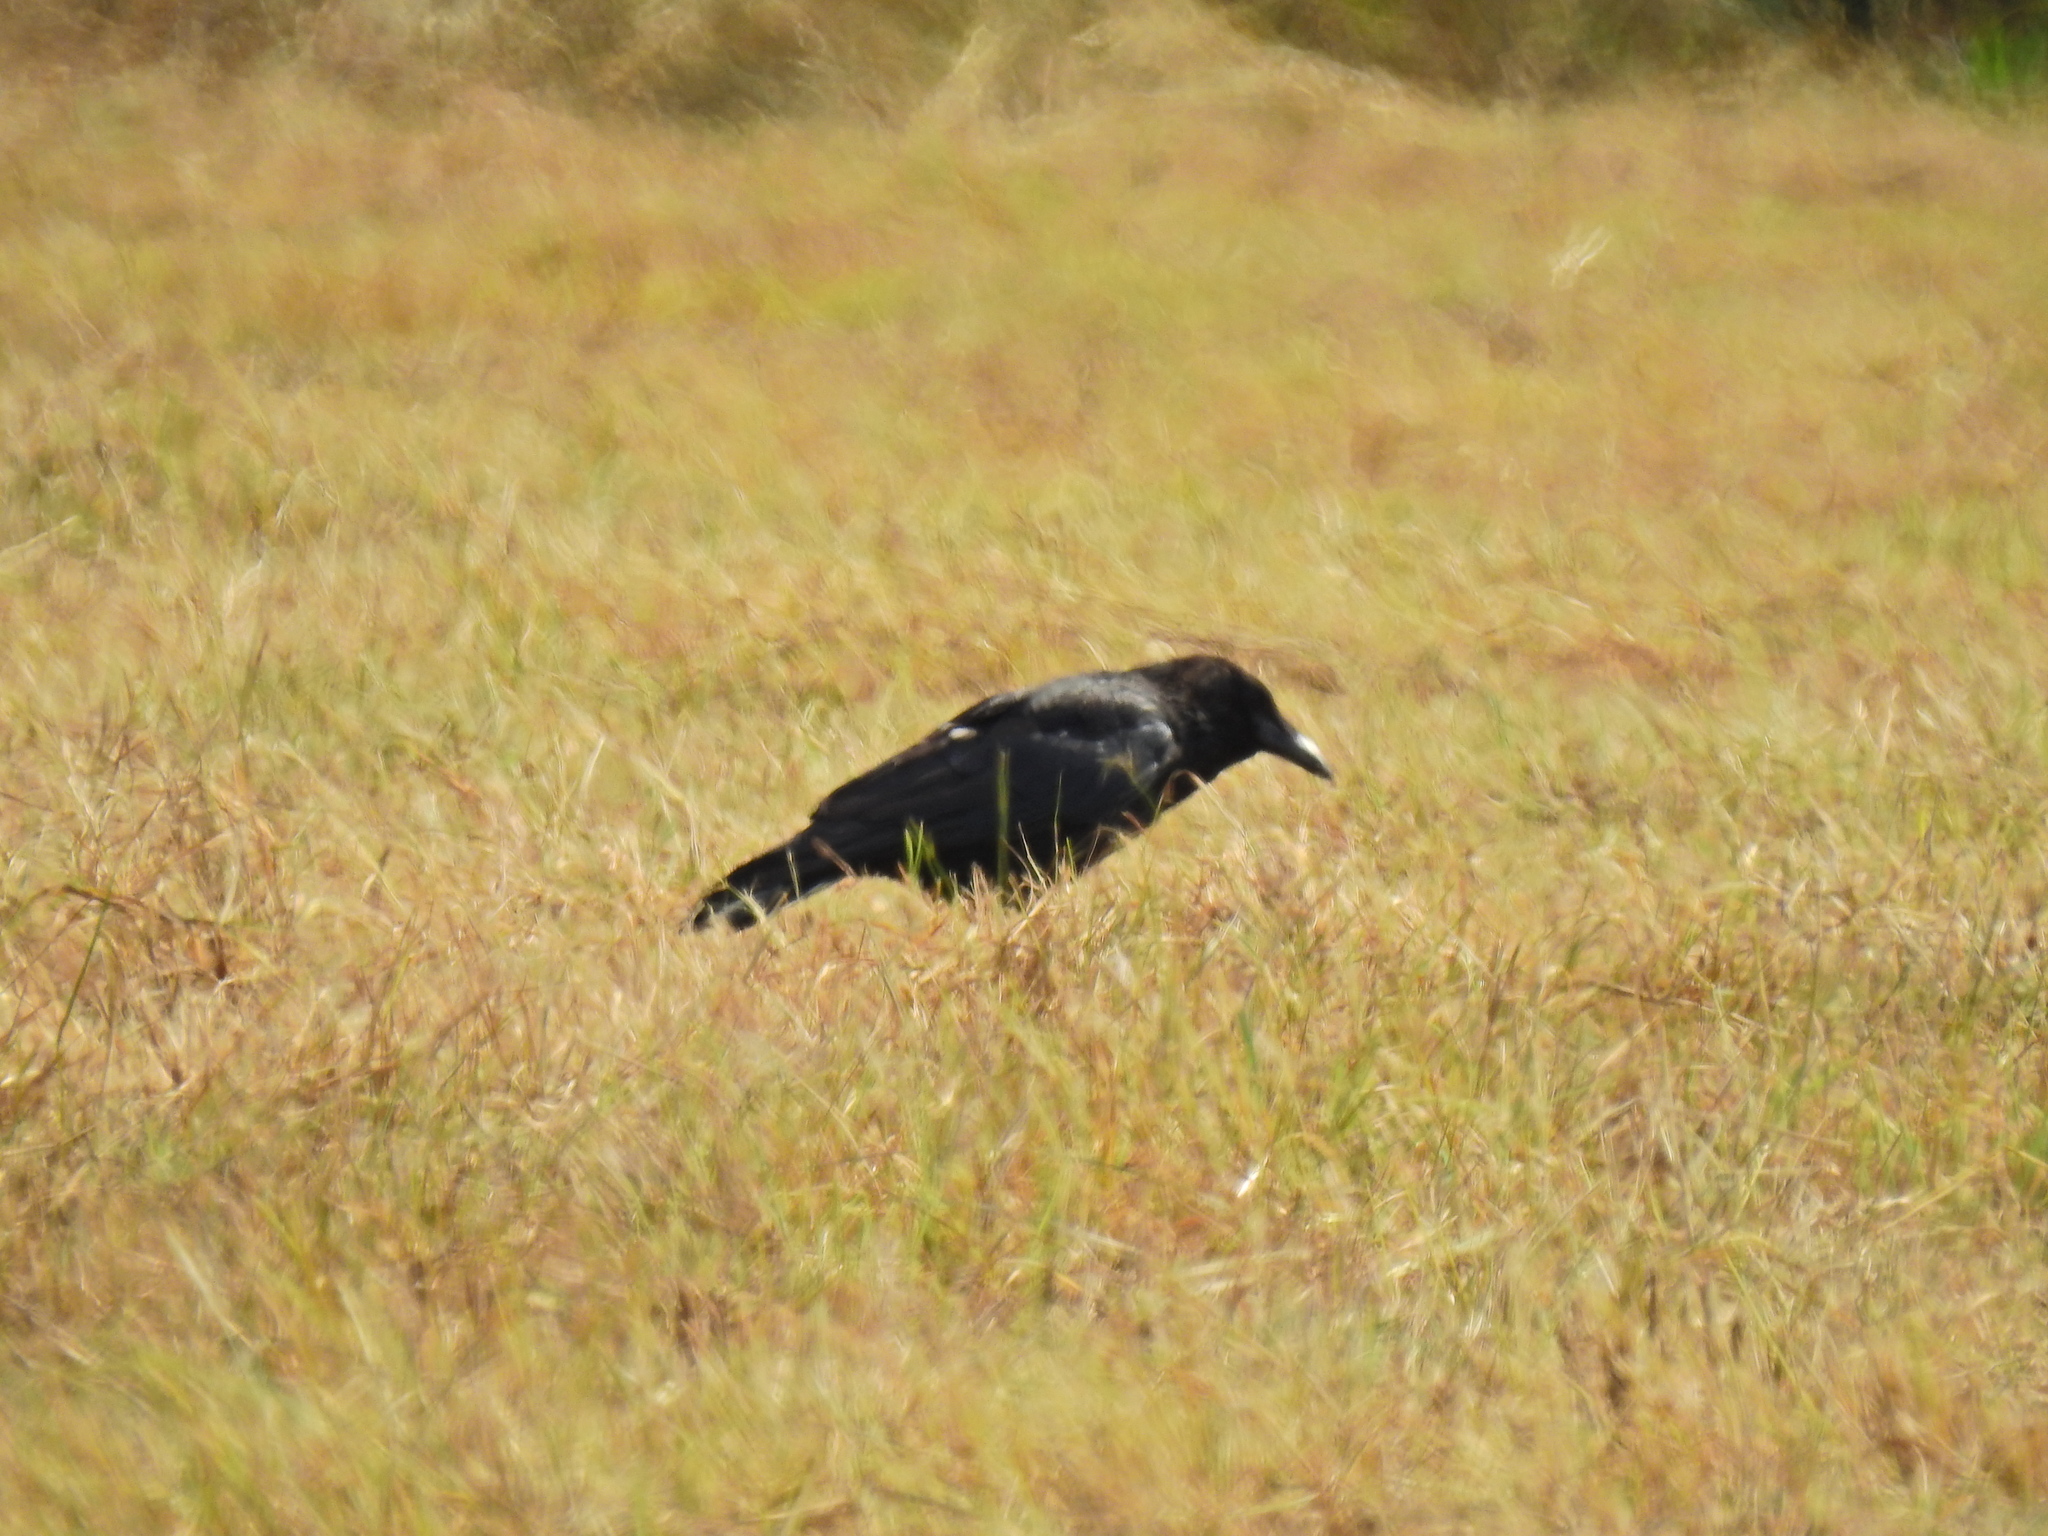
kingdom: Animalia
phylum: Chordata
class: Aves
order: Passeriformes
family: Corvidae
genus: Corvus
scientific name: Corvus corone
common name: Carrion crow
